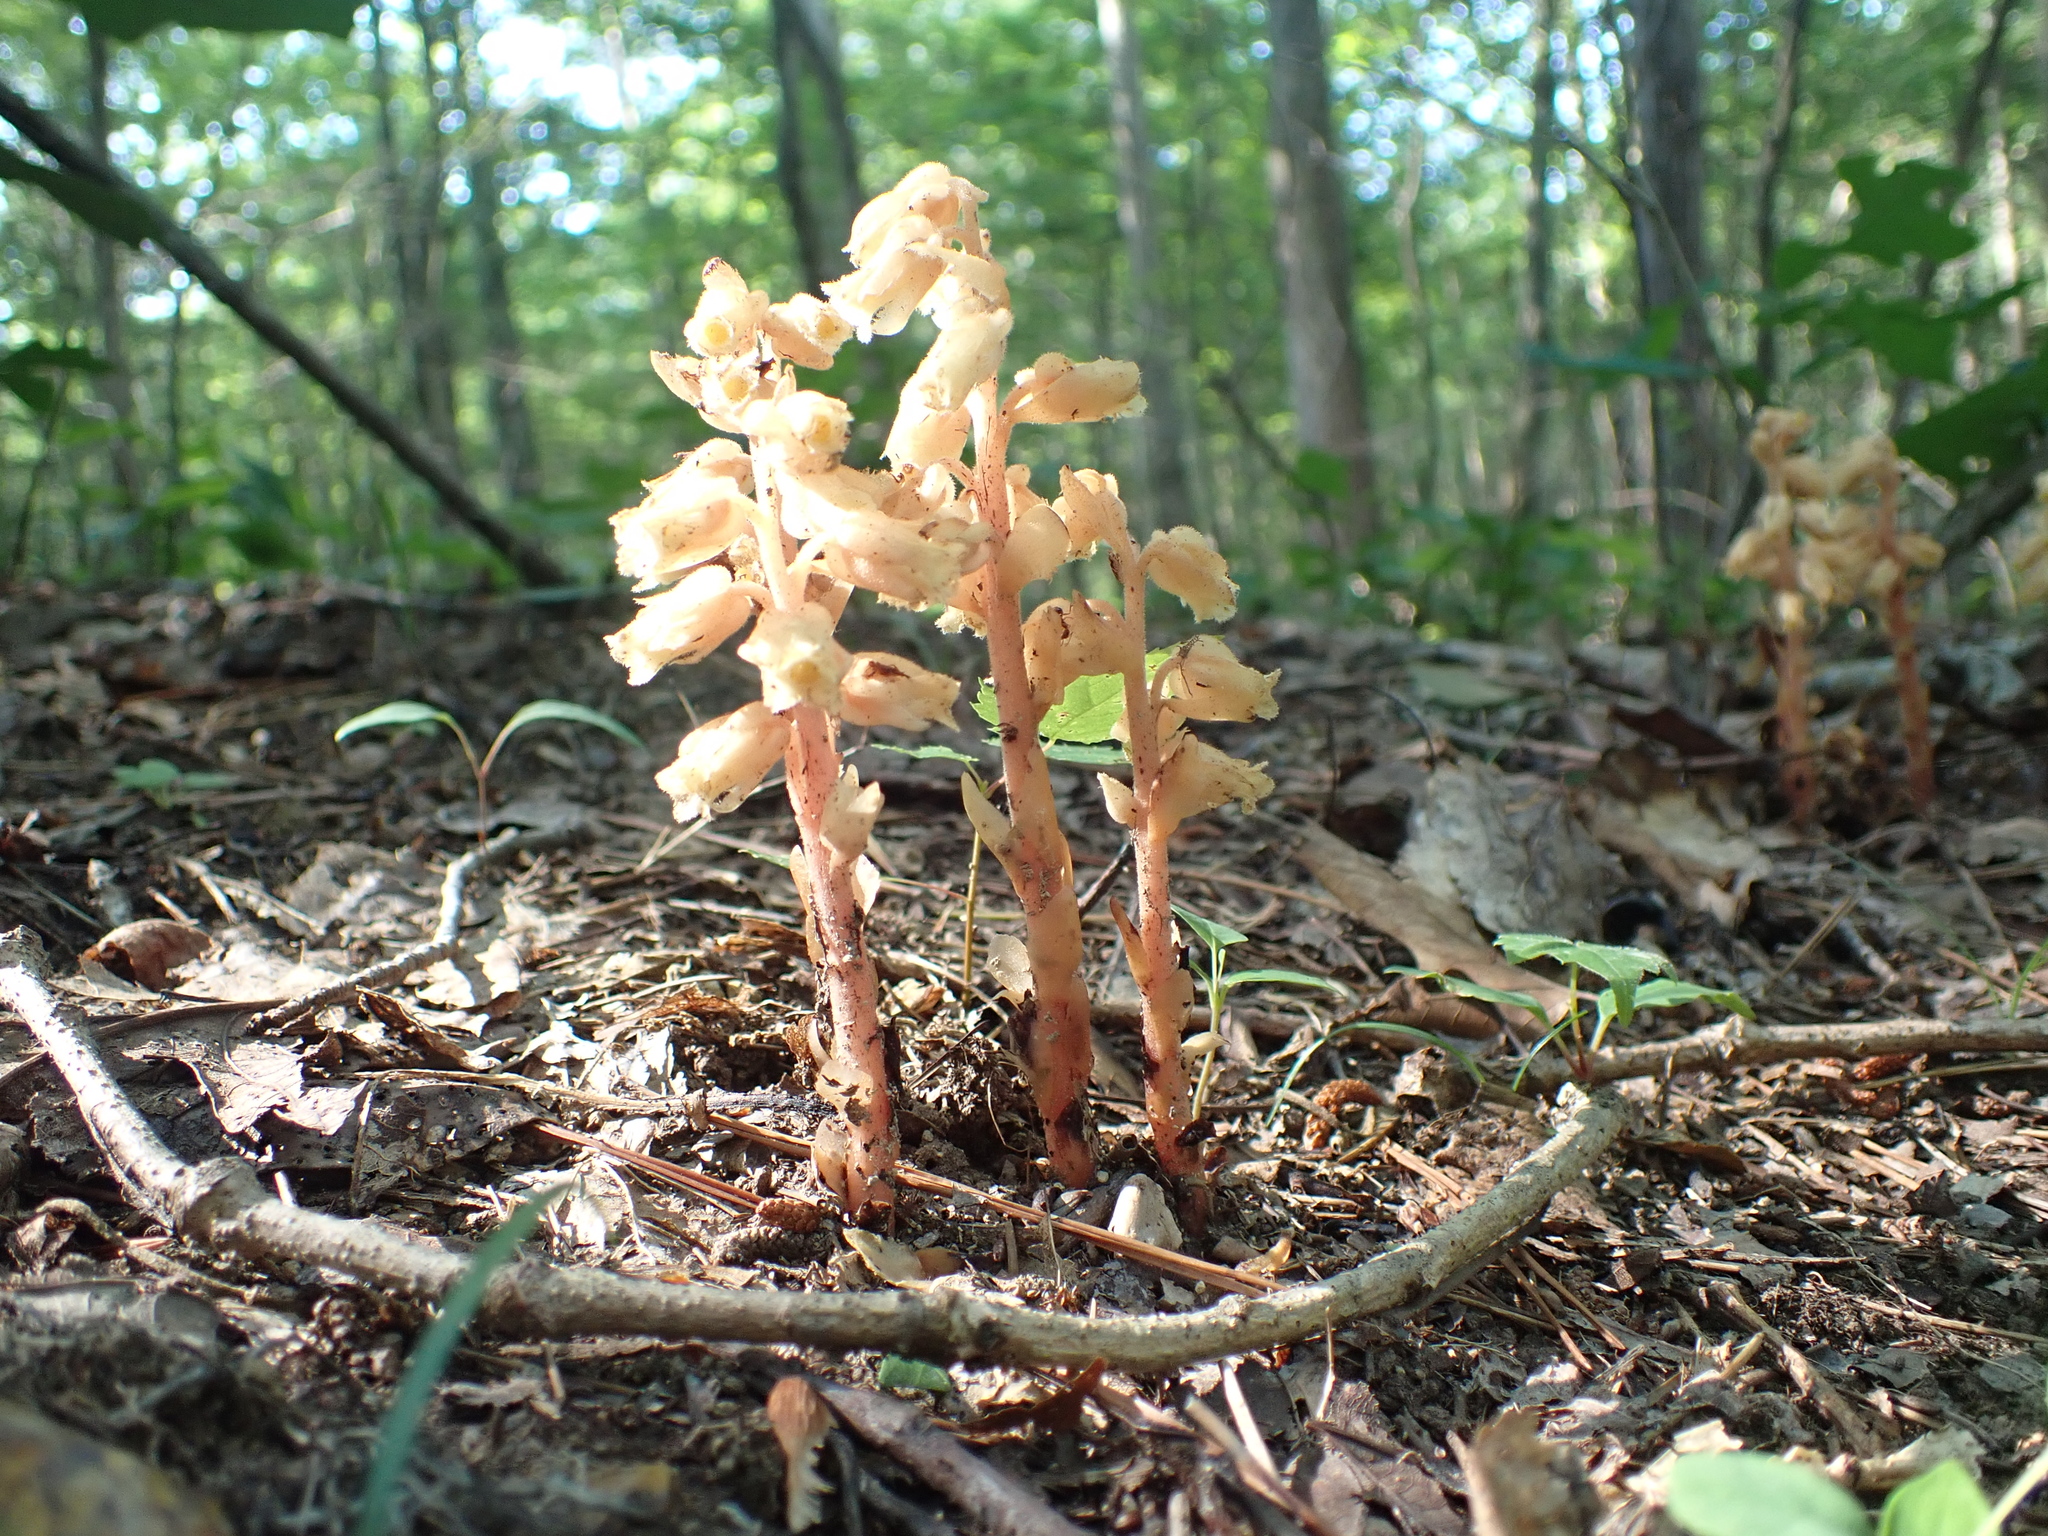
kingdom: Plantae
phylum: Tracheophyta
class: Magnoliopsida
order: Ericales
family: Ericaceae
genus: Hypopitys
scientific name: Hypopitys monotropa
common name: Yellow bird's-nest
